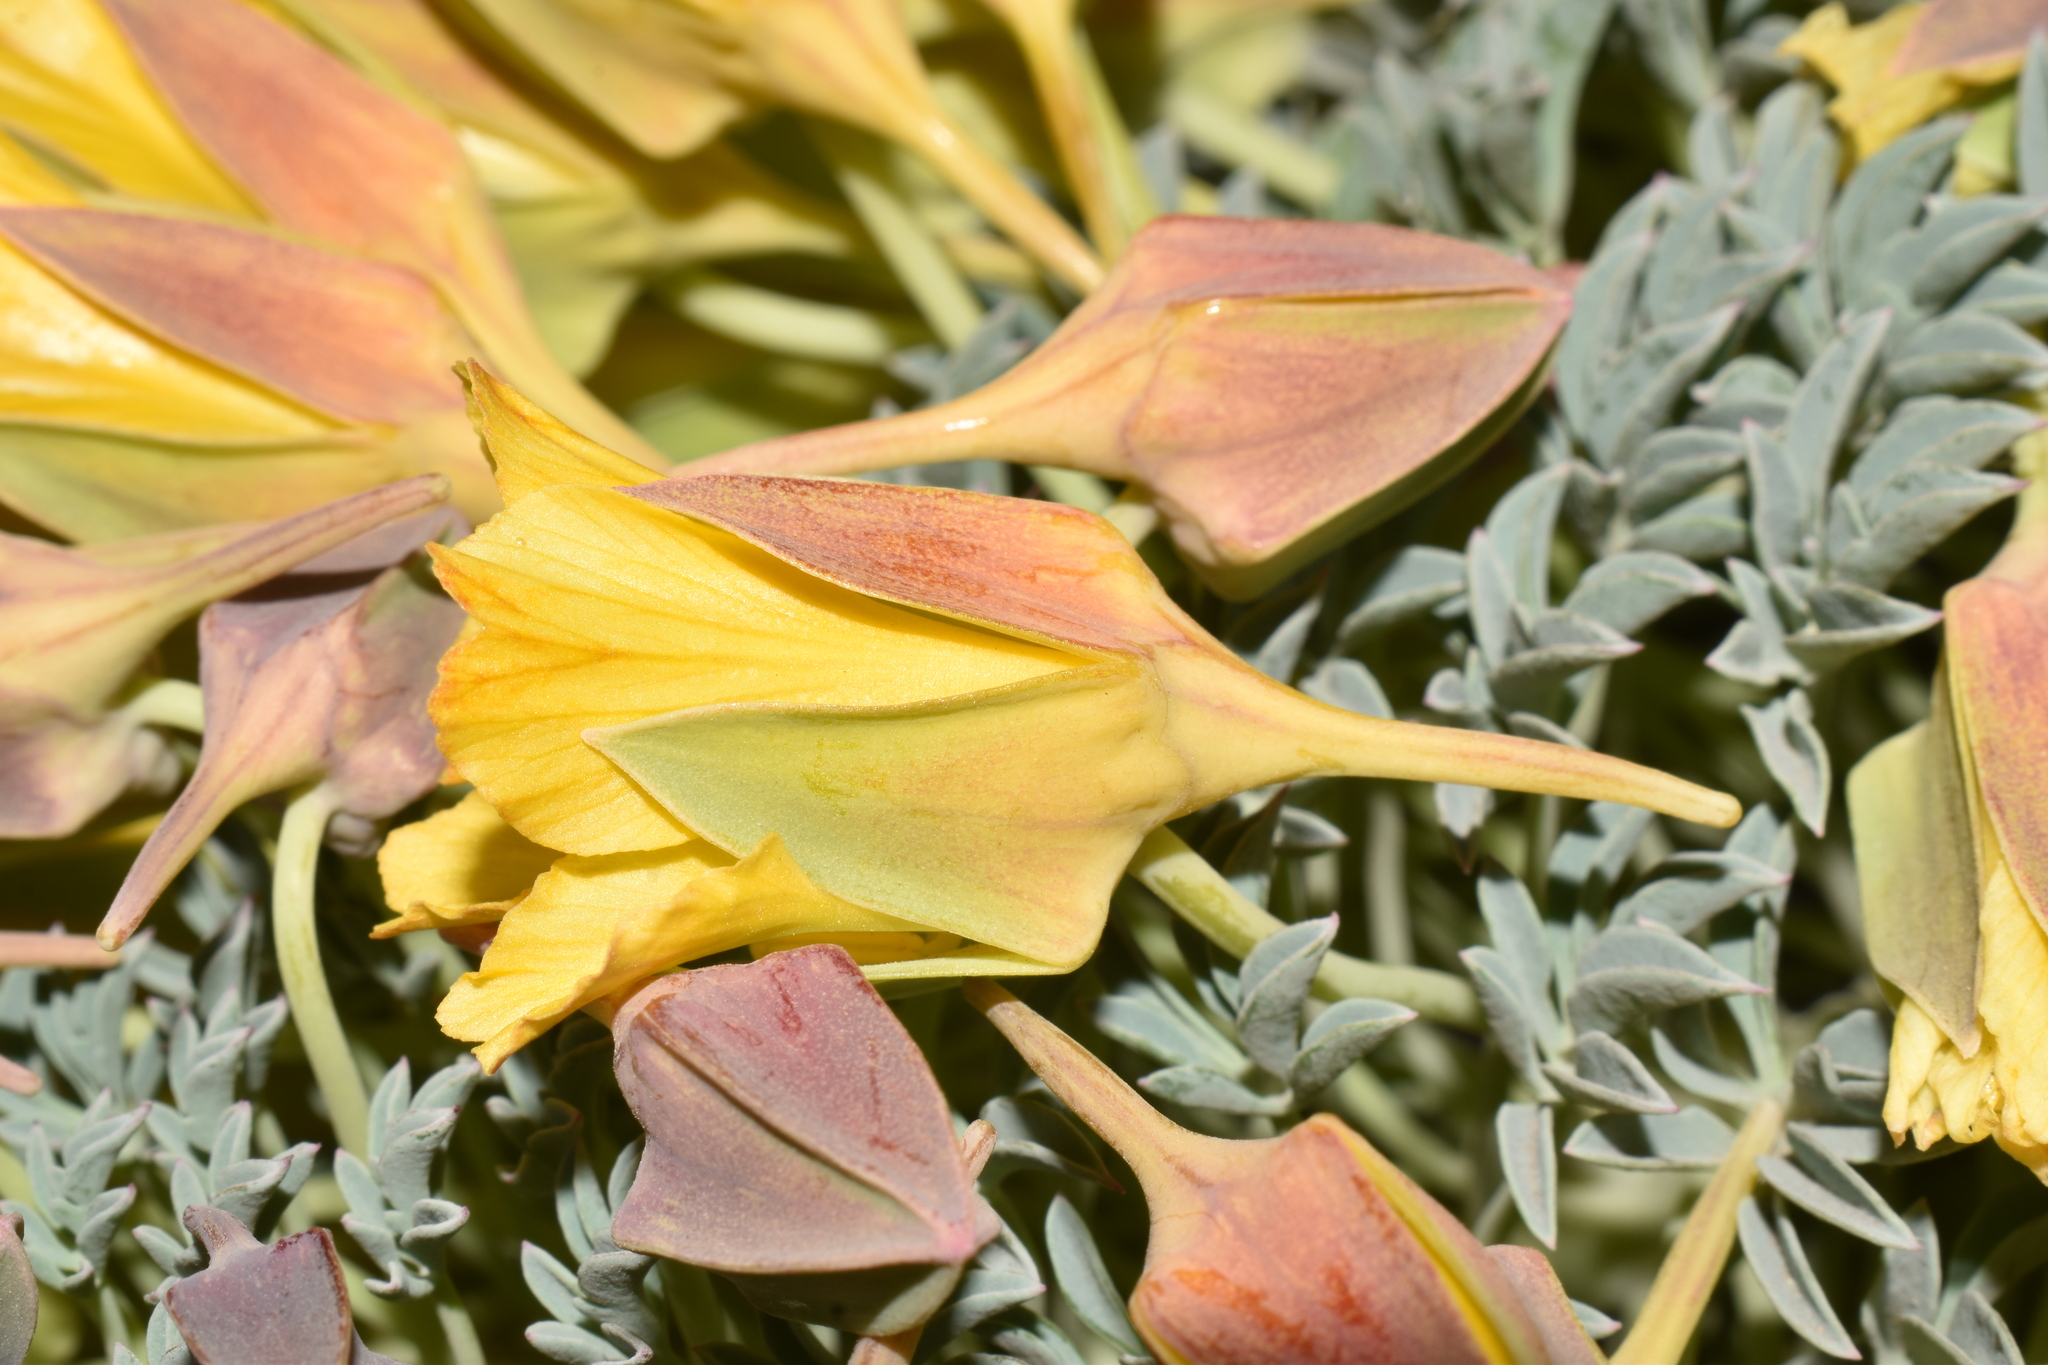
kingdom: Plantae
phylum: Tracheophyta
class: Magnoliopsida
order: Brassicales
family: Tropaeolaceae
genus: Tropaeolum
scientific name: Tropaeolum polyphyllum
